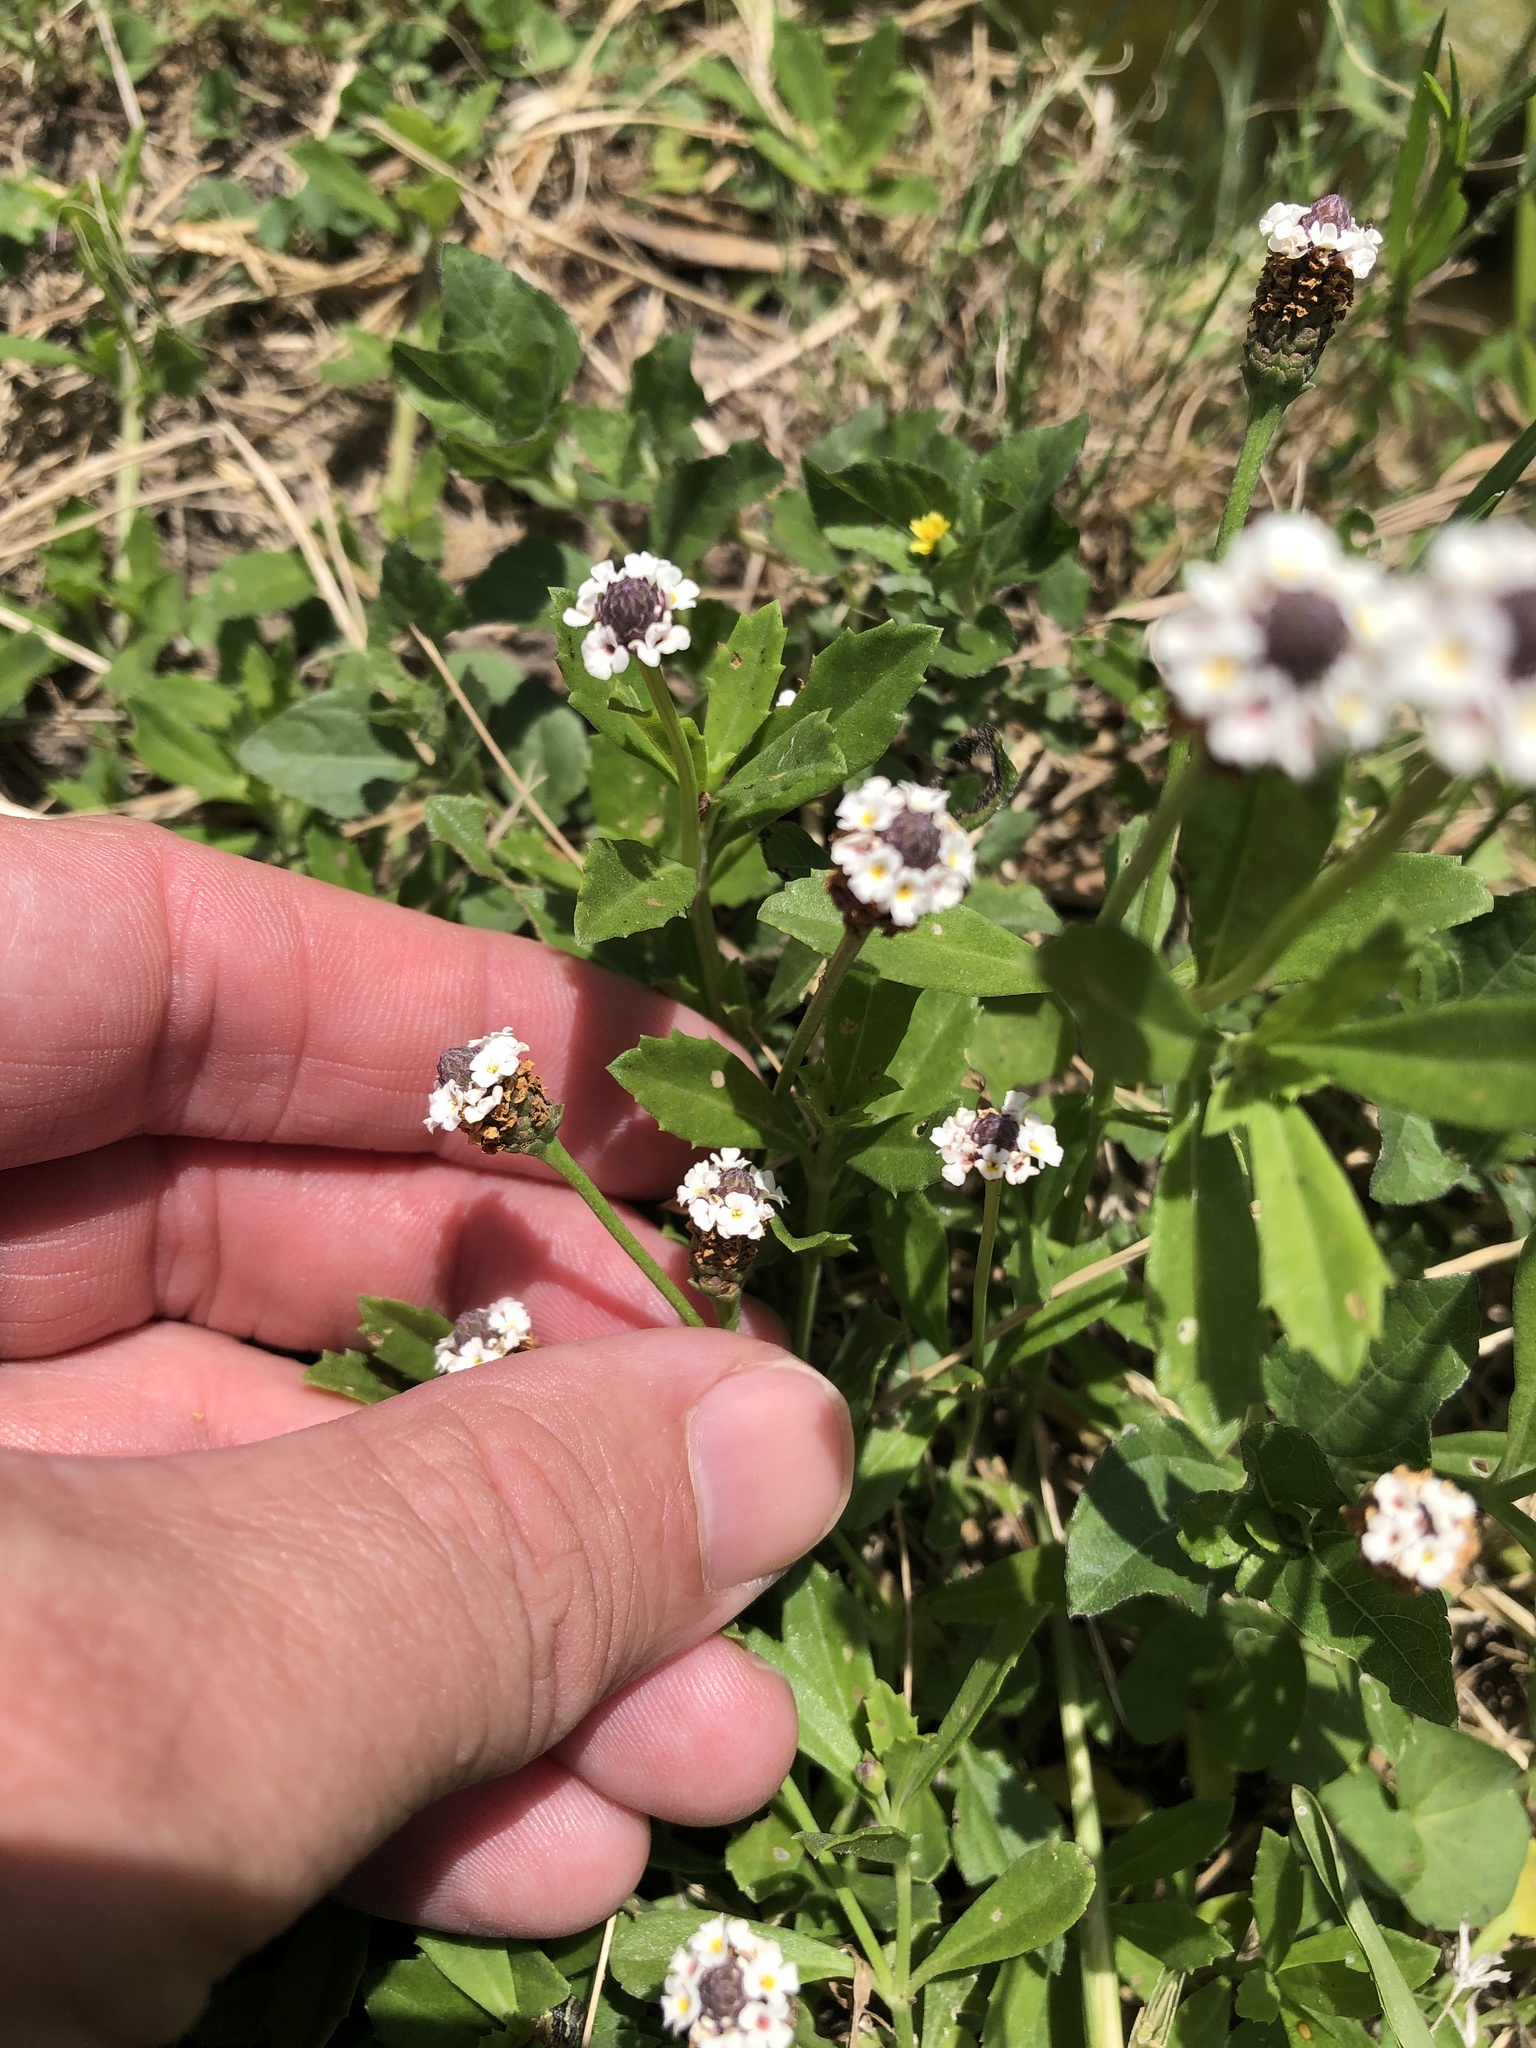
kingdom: Plantae
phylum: Tracheophyta
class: Magnoliopsida
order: Lamiales
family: Verbenaceae
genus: Phyla
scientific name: Phyla nodiflora
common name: Frogfruit
